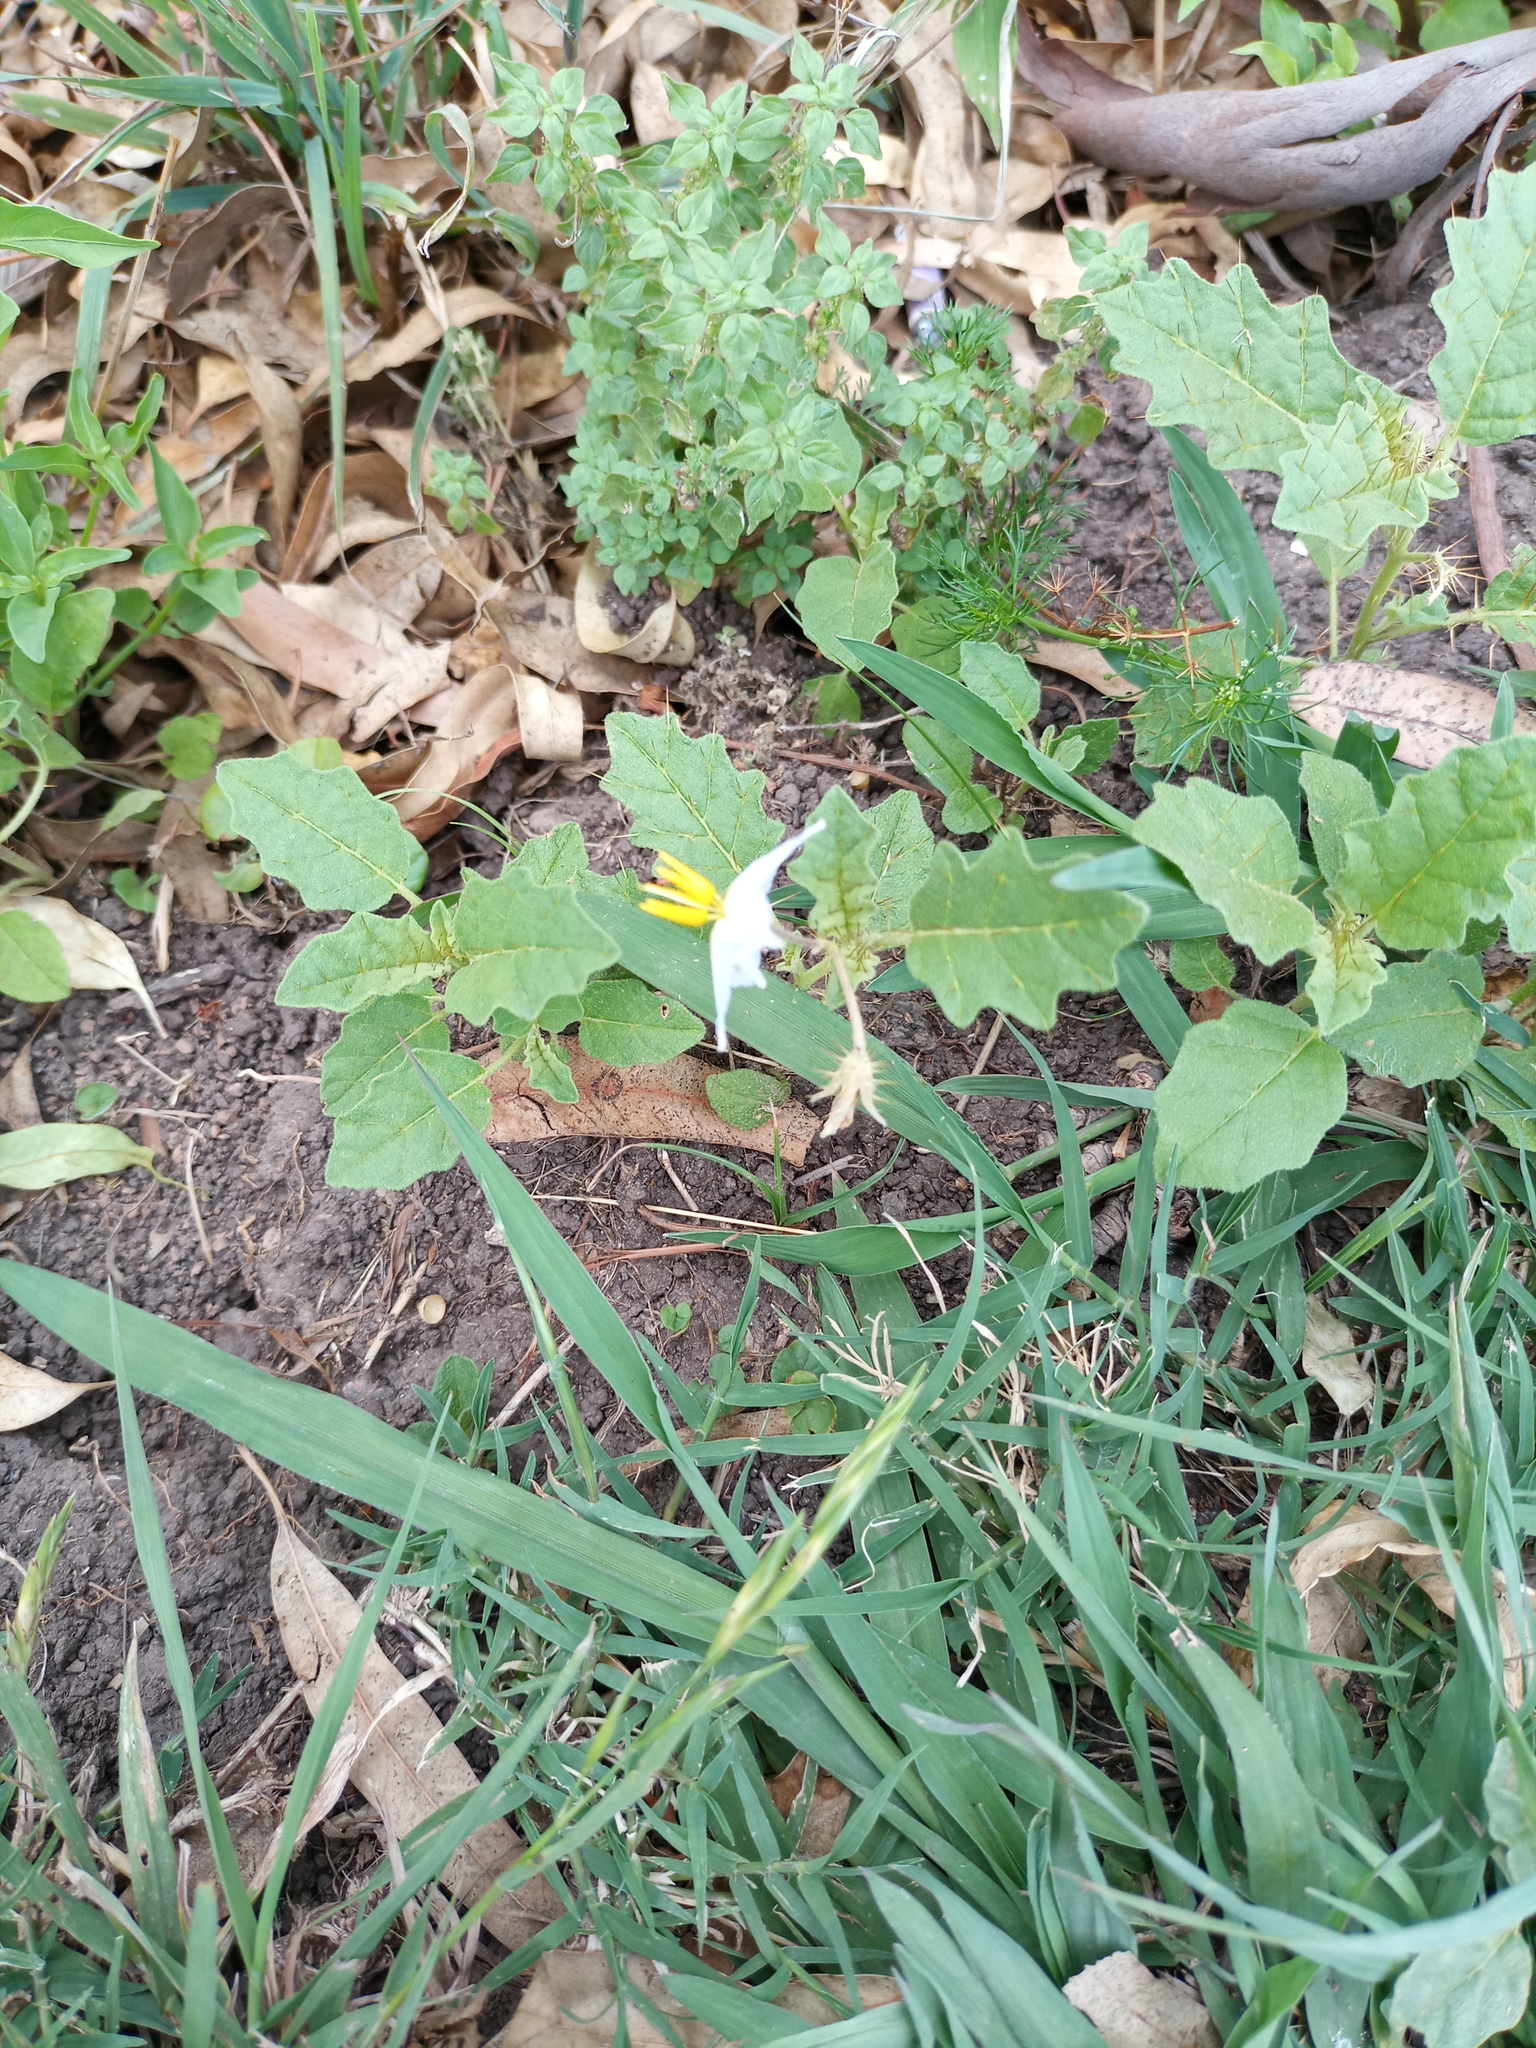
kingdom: Plantae
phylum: Tracheophyta
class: Magnoliopsida
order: Solanales
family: Solanaceae
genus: Solanum
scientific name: Solanum juvenale
